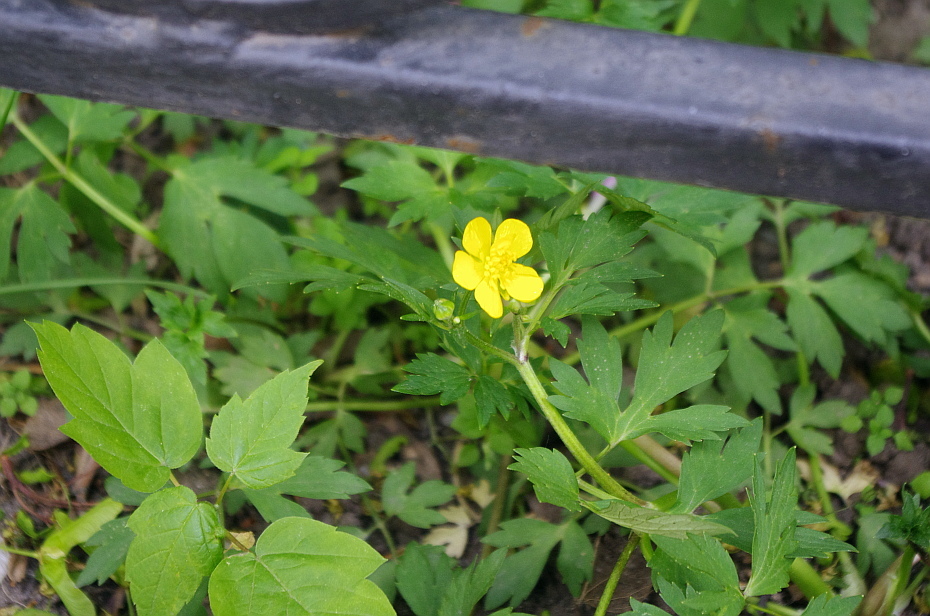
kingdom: Plantae
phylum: Tracheophyta
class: Magnoliopsida
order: Ranunculales
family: Ranunculaceae
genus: Ranunculus
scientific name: Ranunculus repens
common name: Creeping buttercup
